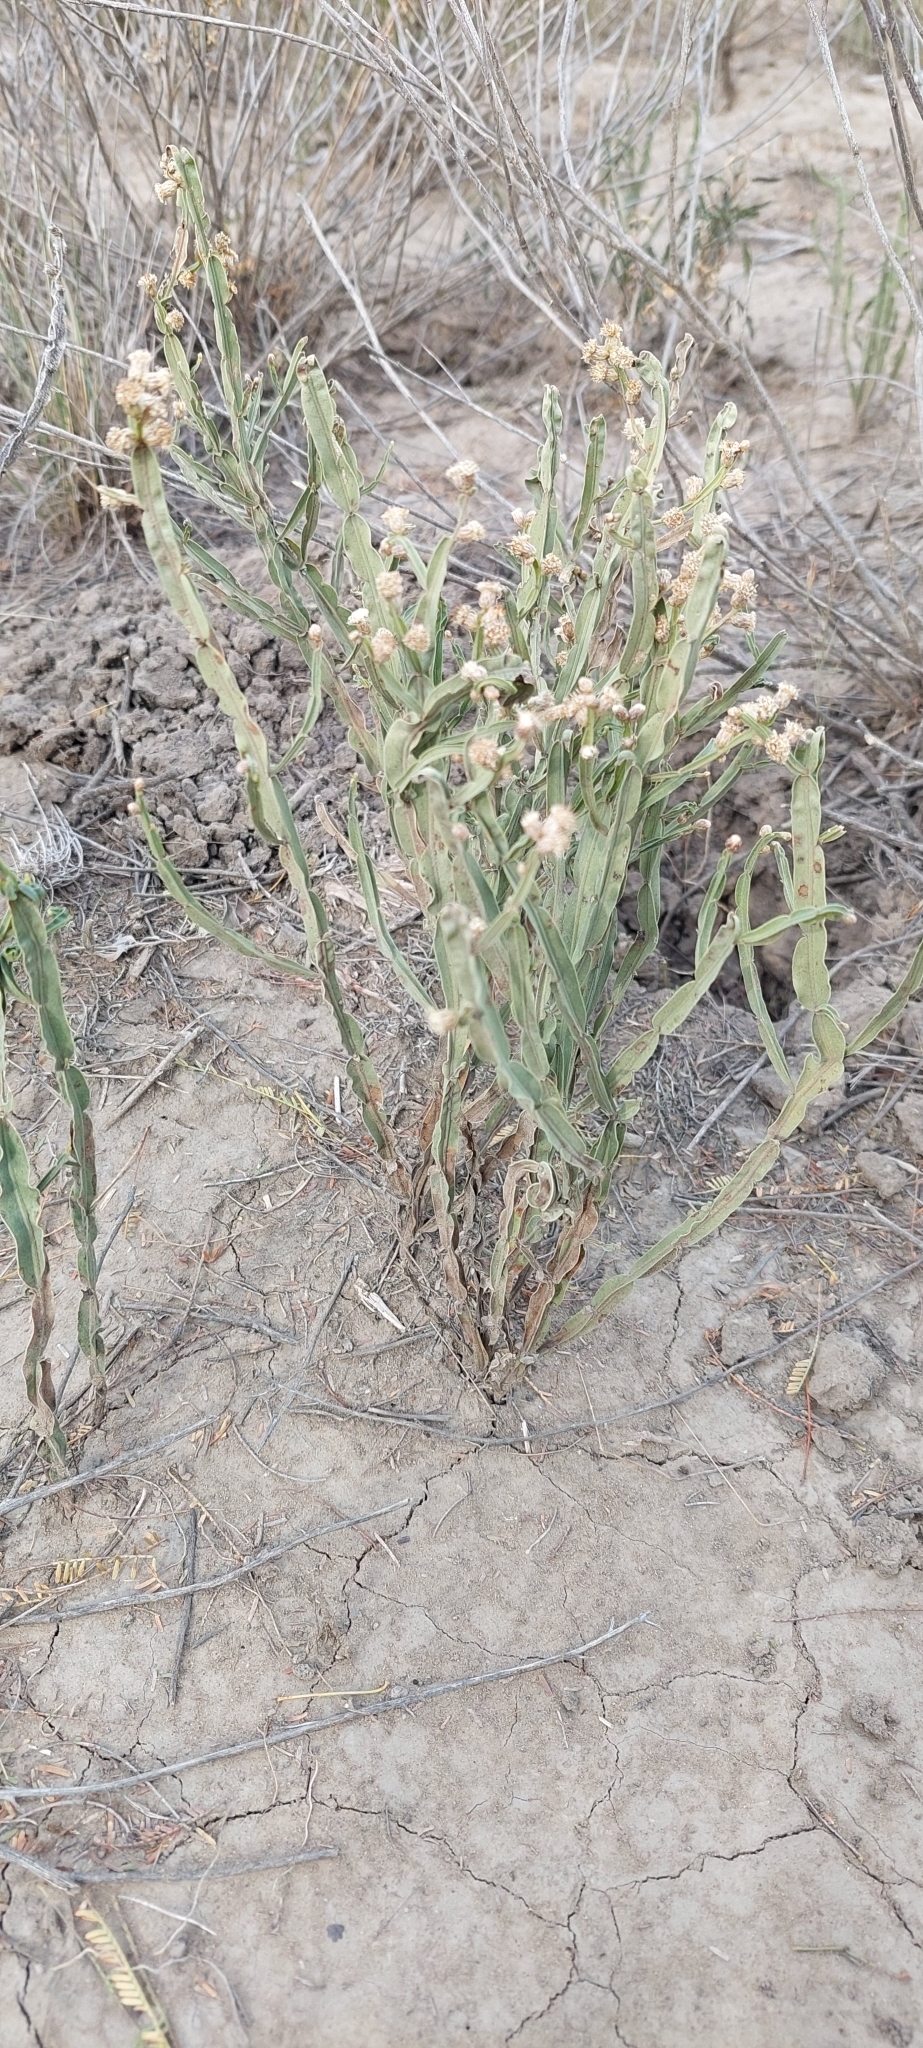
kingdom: Plantae
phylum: Tracheophyta
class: Magnoliopsida
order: Asterales
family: Asteraceae
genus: Baccharis
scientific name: Baccharis crispa
